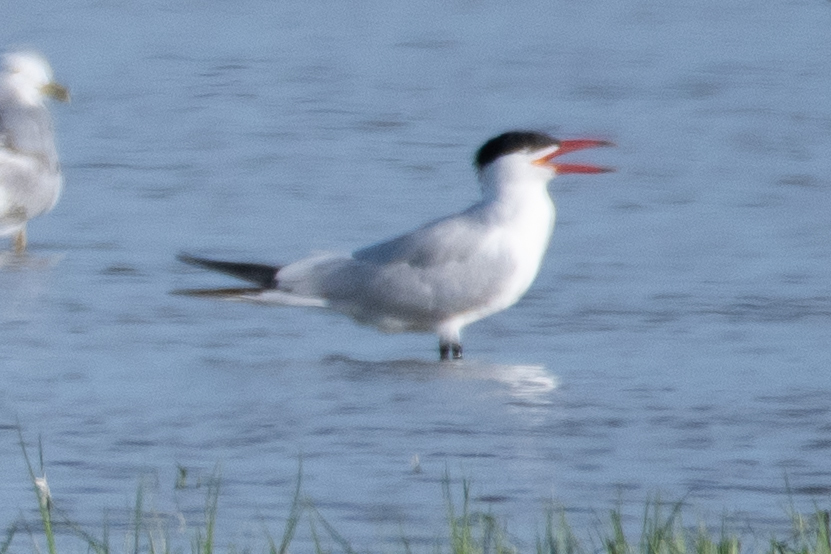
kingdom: Animalia
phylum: Chordata
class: Aves
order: Charadriiformes
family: Laridae
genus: Hydroprogne
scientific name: Hydroprogne caspia
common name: Caspian tern
